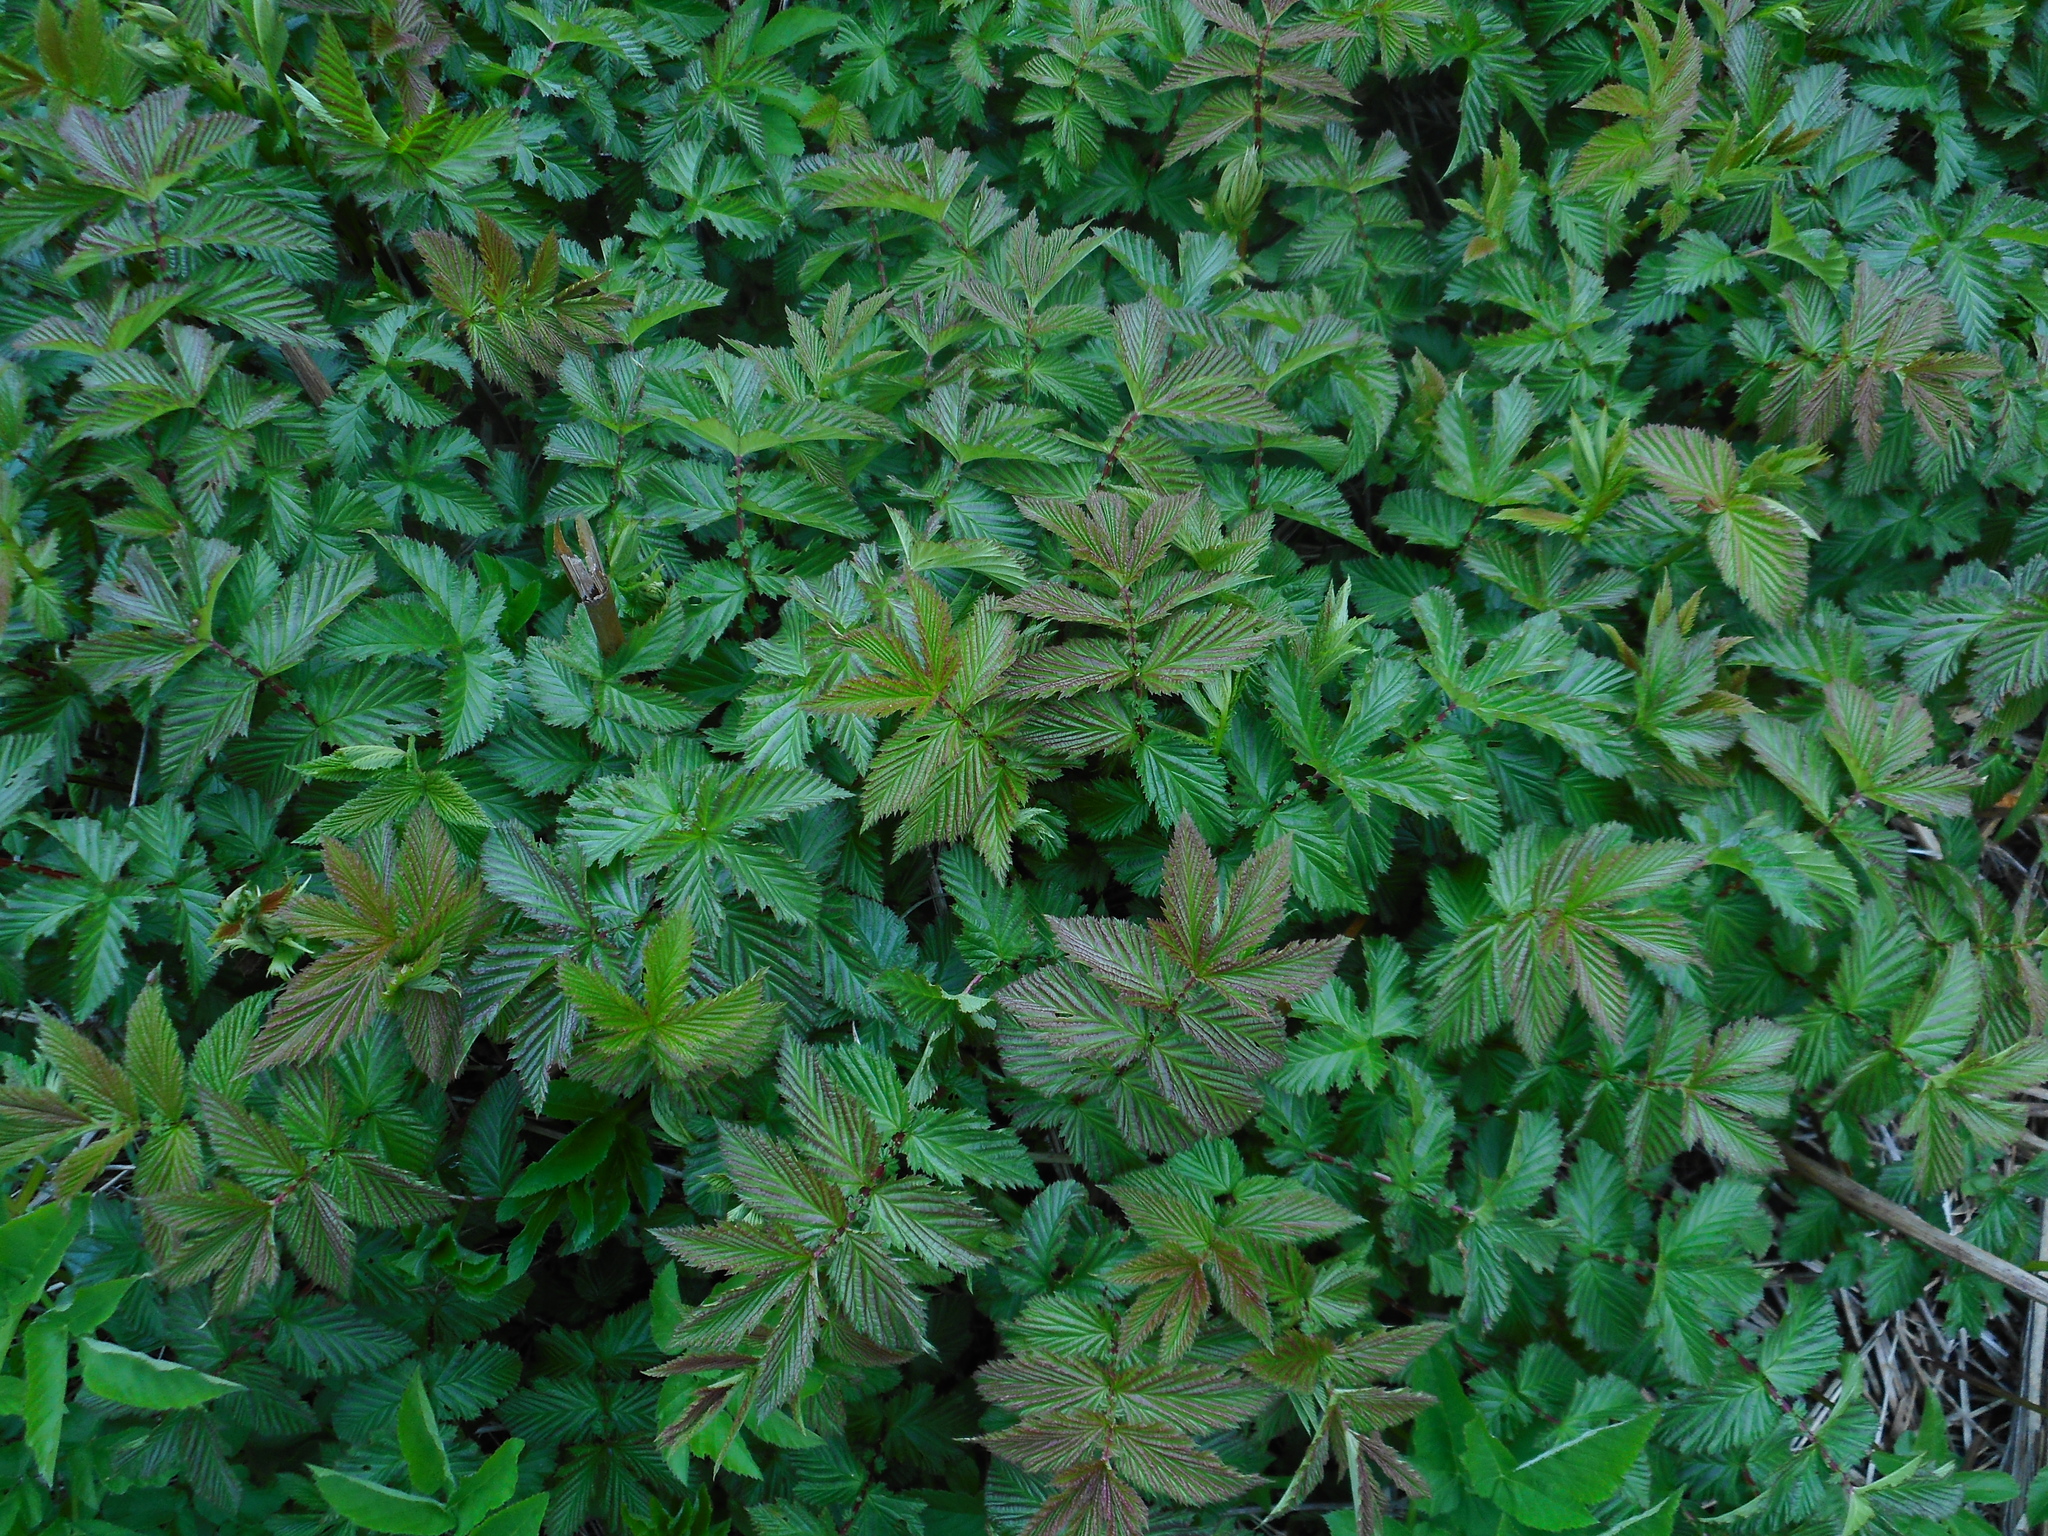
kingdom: Plantae
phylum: Tracheophyta
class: Magnoliopsida
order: Rosales
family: Rosaceae
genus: Filipendula
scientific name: Filipendula ulmaria
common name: Meadowsweet
